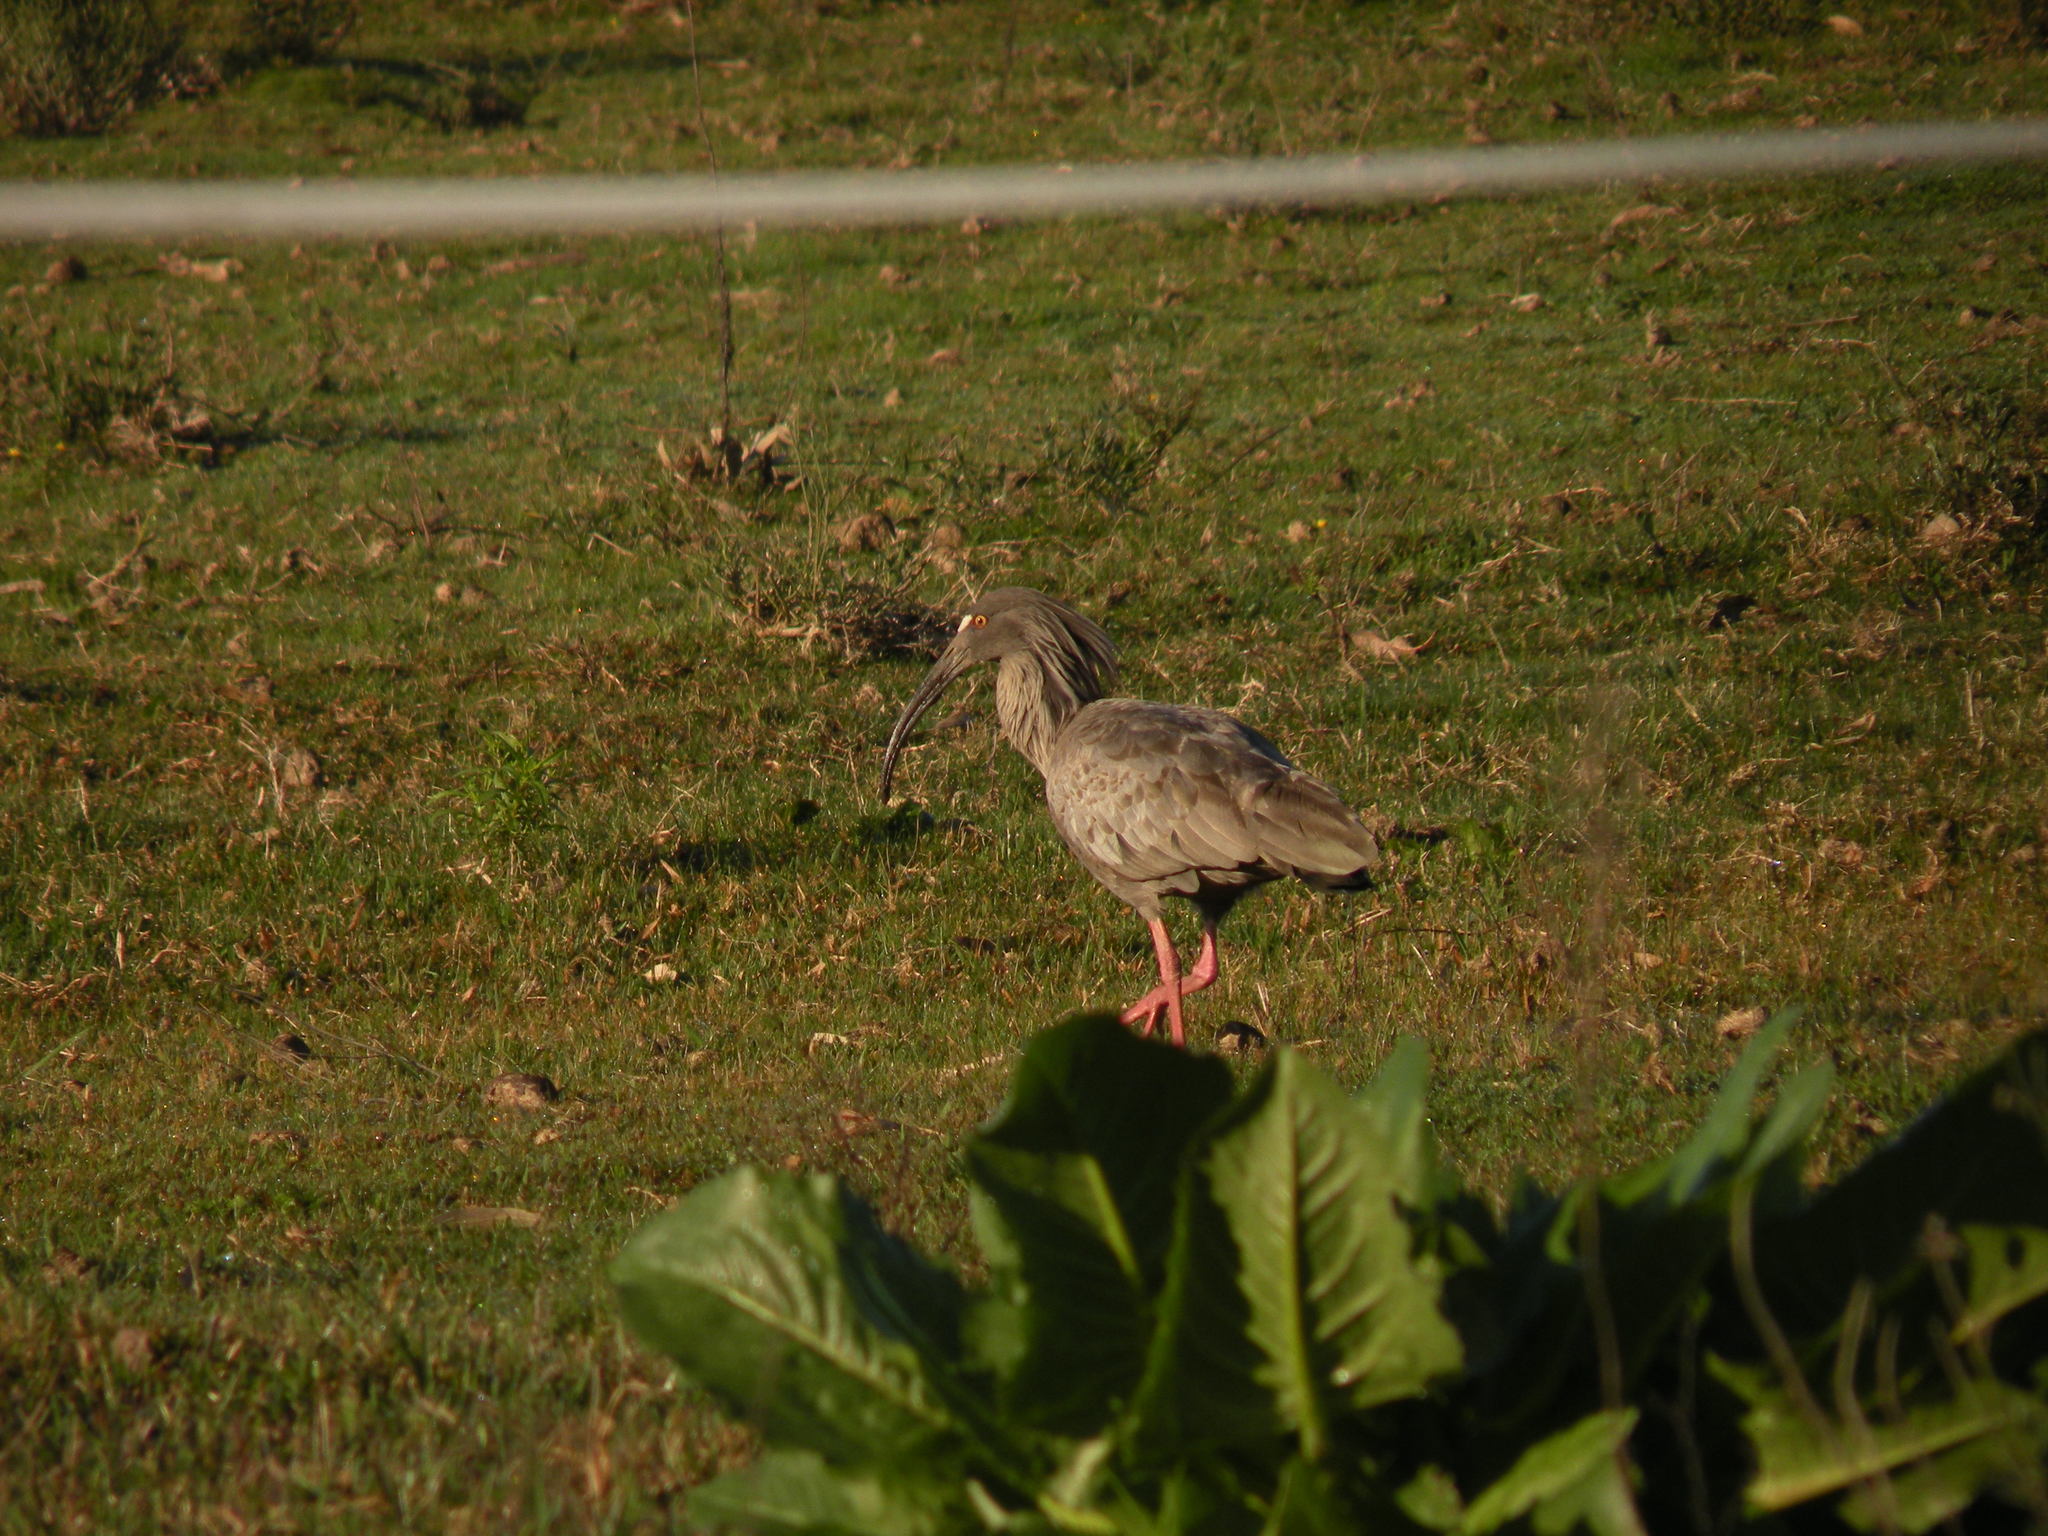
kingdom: Animalia
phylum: Chordata
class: Aves
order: Pelecaniformes
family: Threskiornithidae
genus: Theristicus
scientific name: Theristicus caerulescens
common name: Plumbeous ibis
